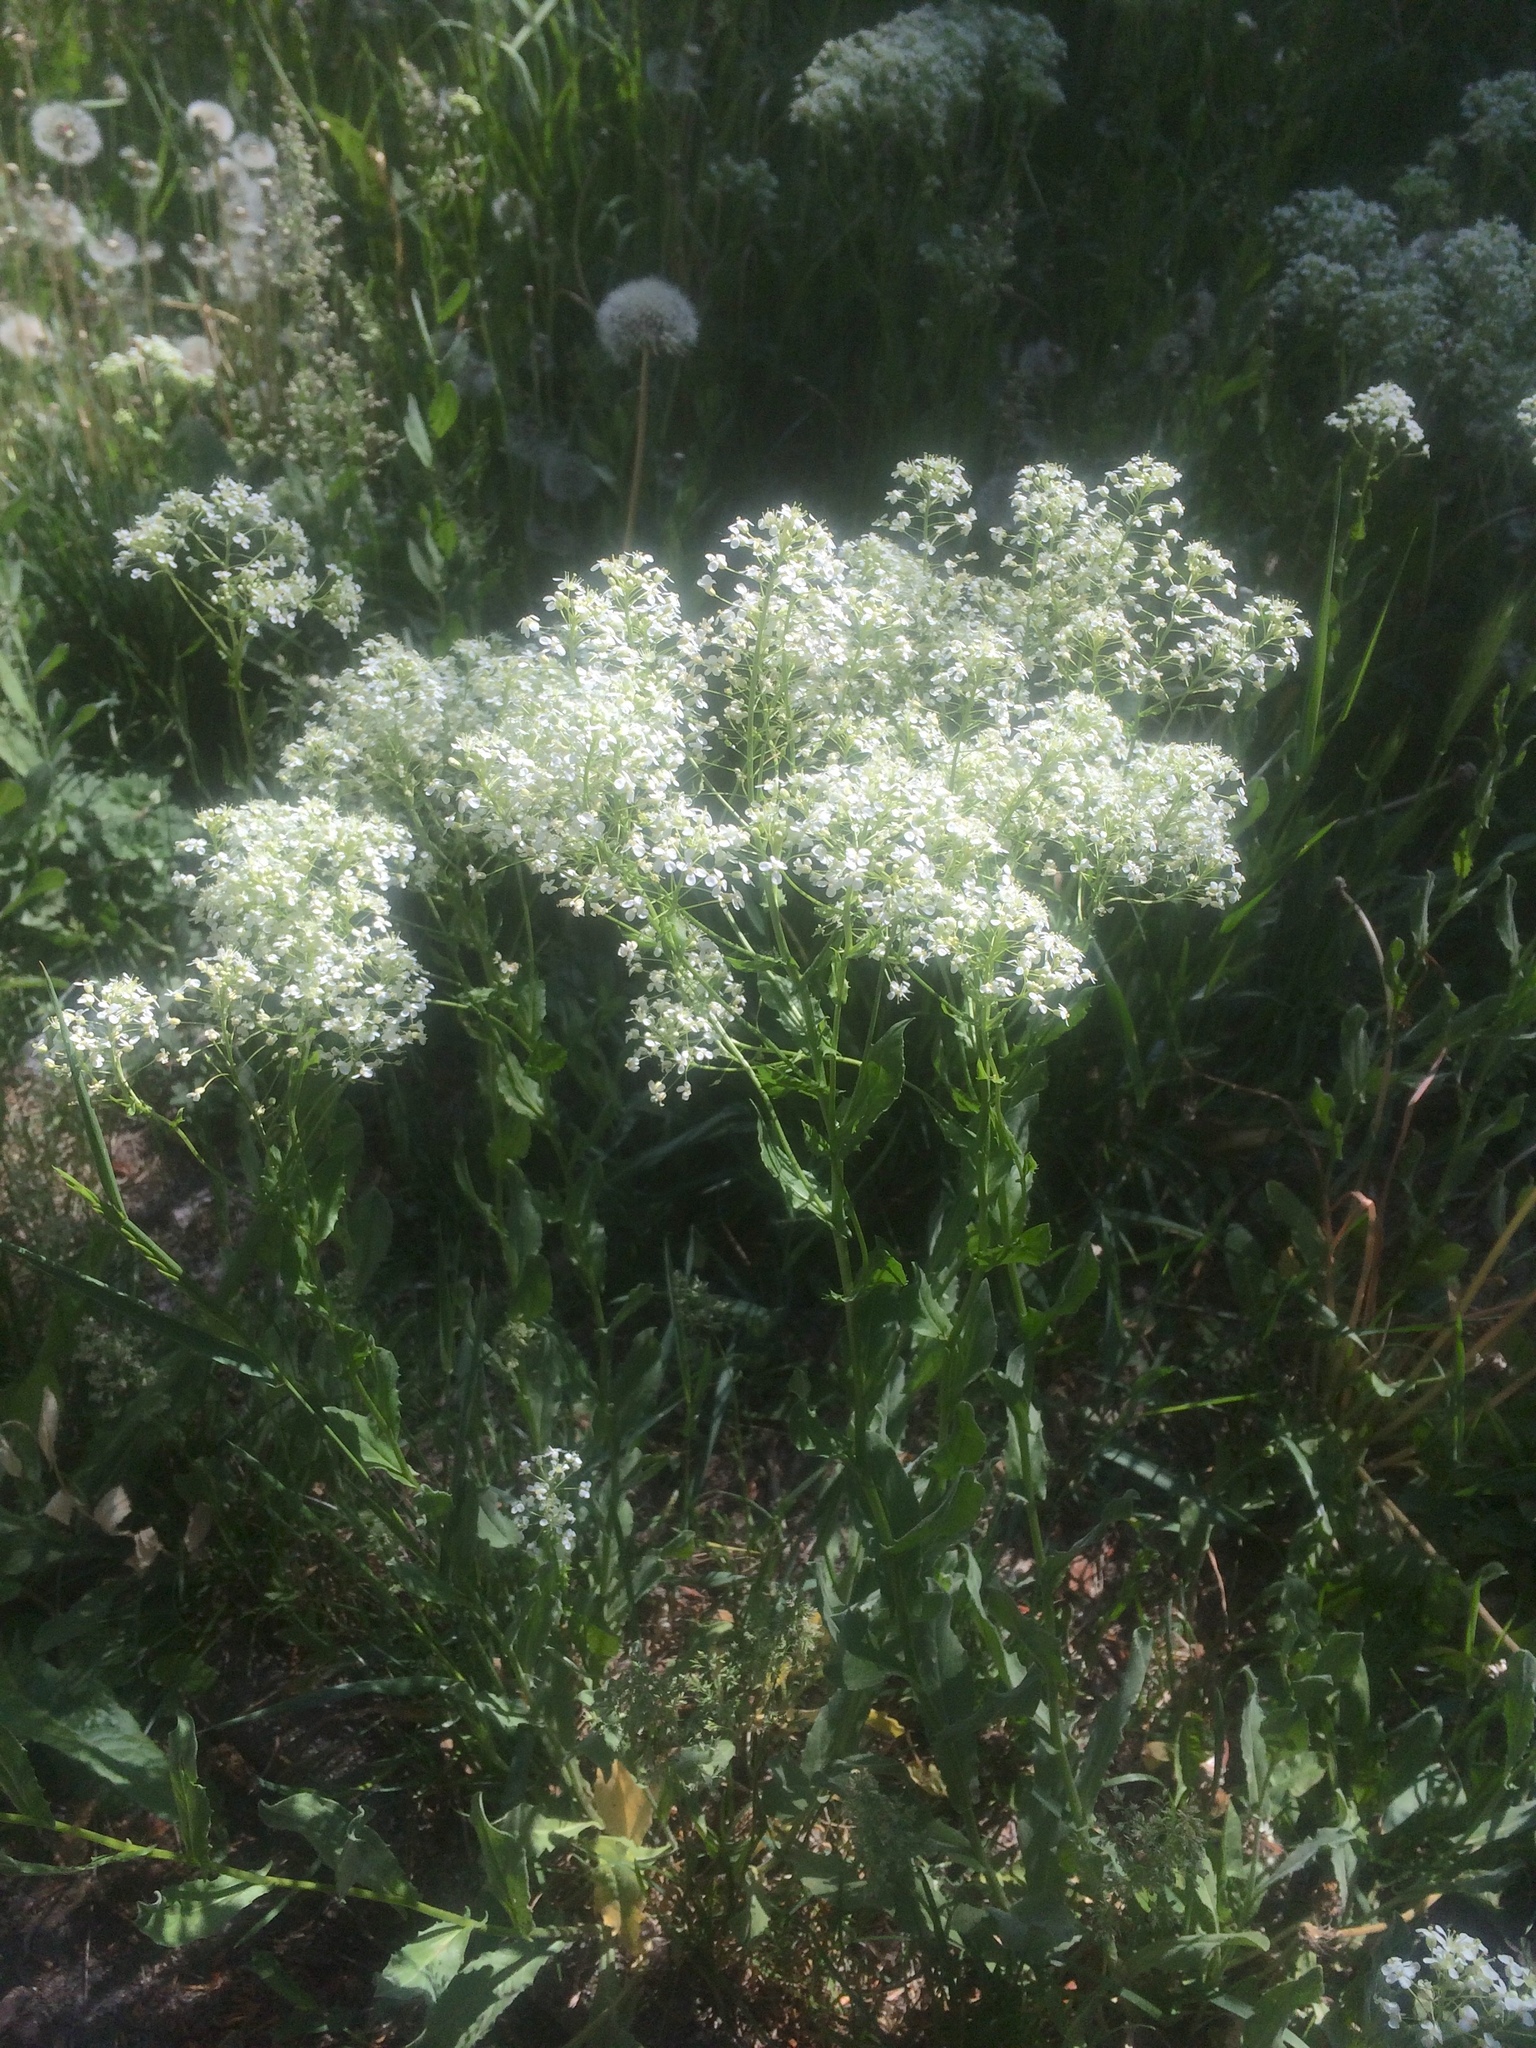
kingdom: Plantae
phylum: Tracheophyta
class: Magnoliopsida
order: Brassicales
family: Brassicaceae
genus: Lepidium
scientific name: Lepidium draba
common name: Hoary cress
